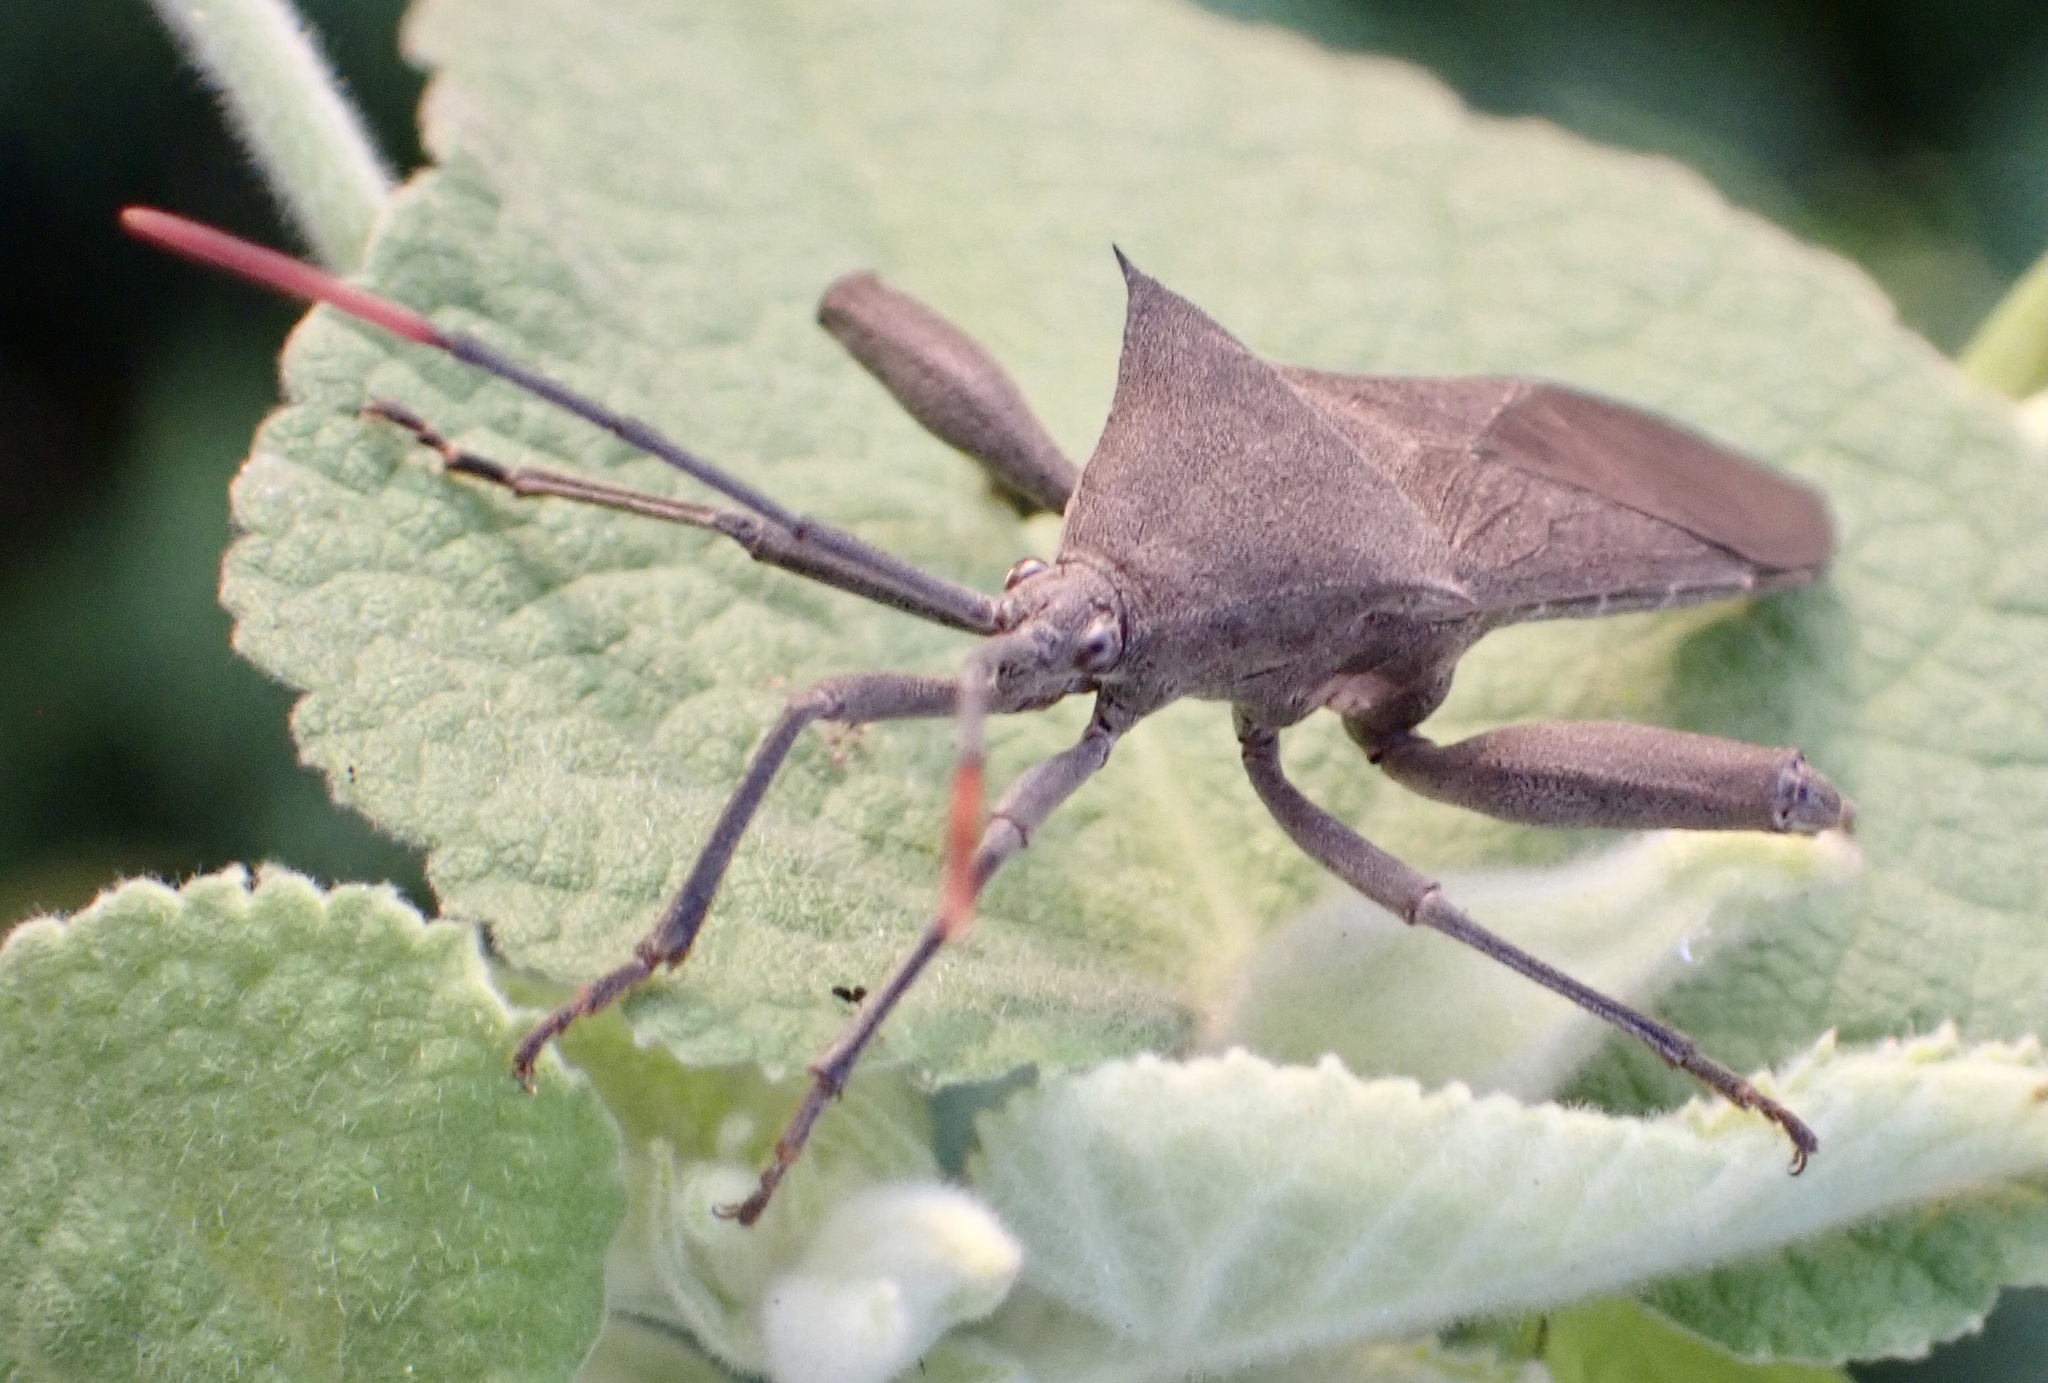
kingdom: Animalia
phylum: Arthropoda
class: Insecta
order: Hemiptera
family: Coreidae
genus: Anoplocnemis
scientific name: Anoplocnemis curvipes
